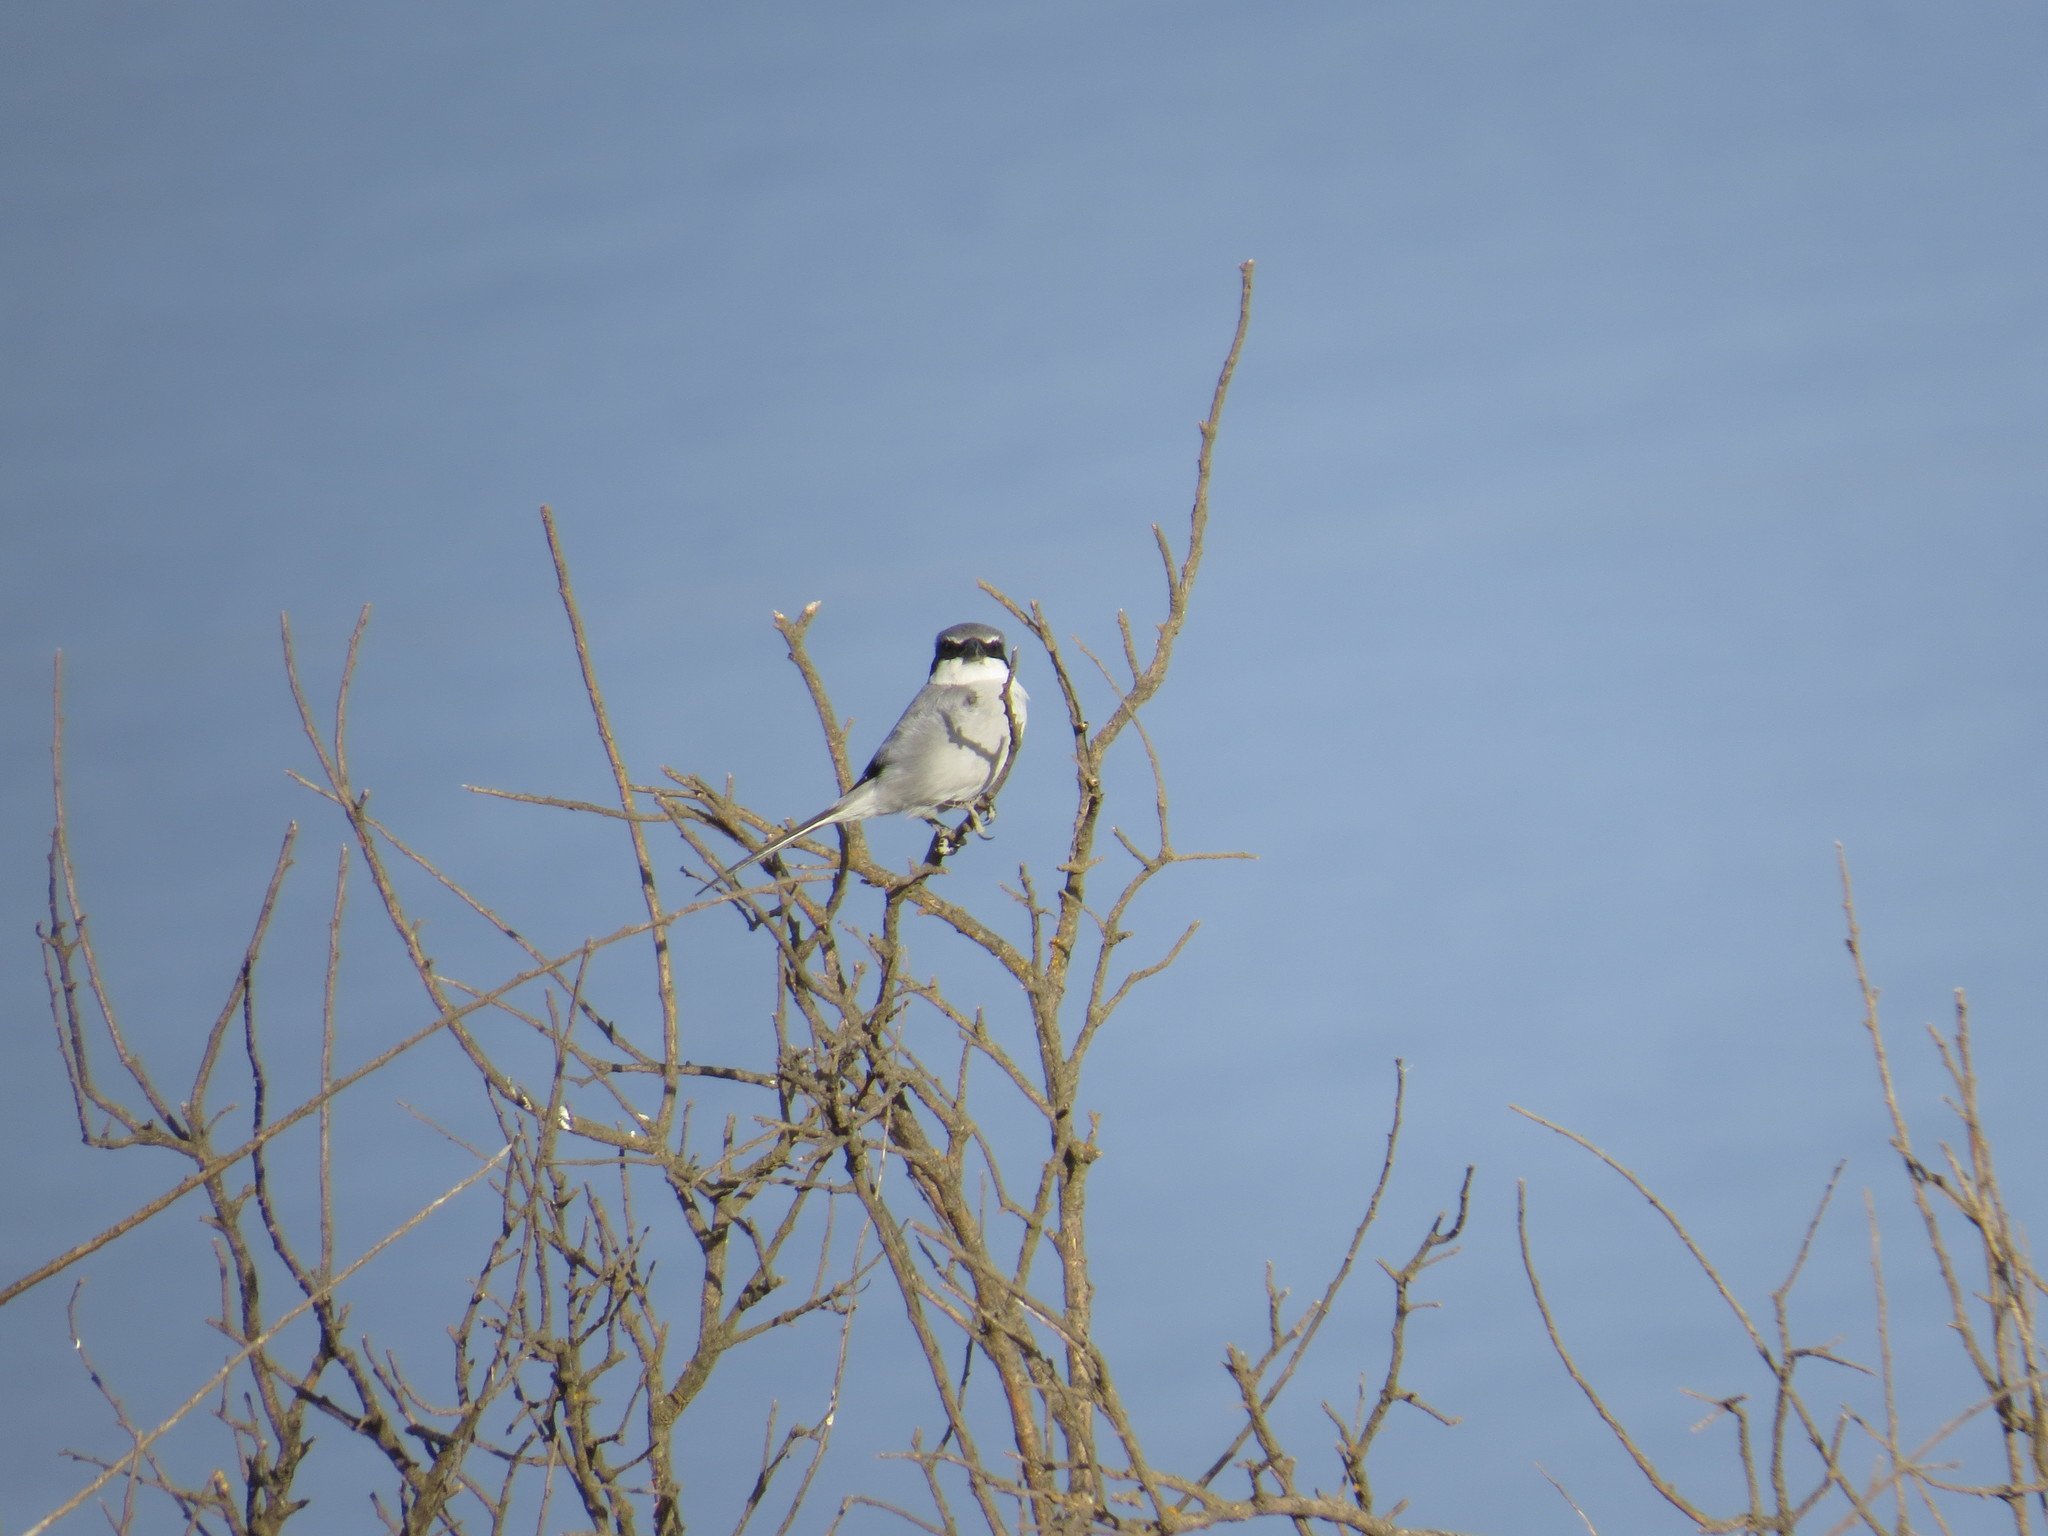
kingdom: Animalia
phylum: Chordata
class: Aves
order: Passeriformes
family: Laniidae
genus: Lanius
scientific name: Lanius excubitor
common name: Great grey shrike
